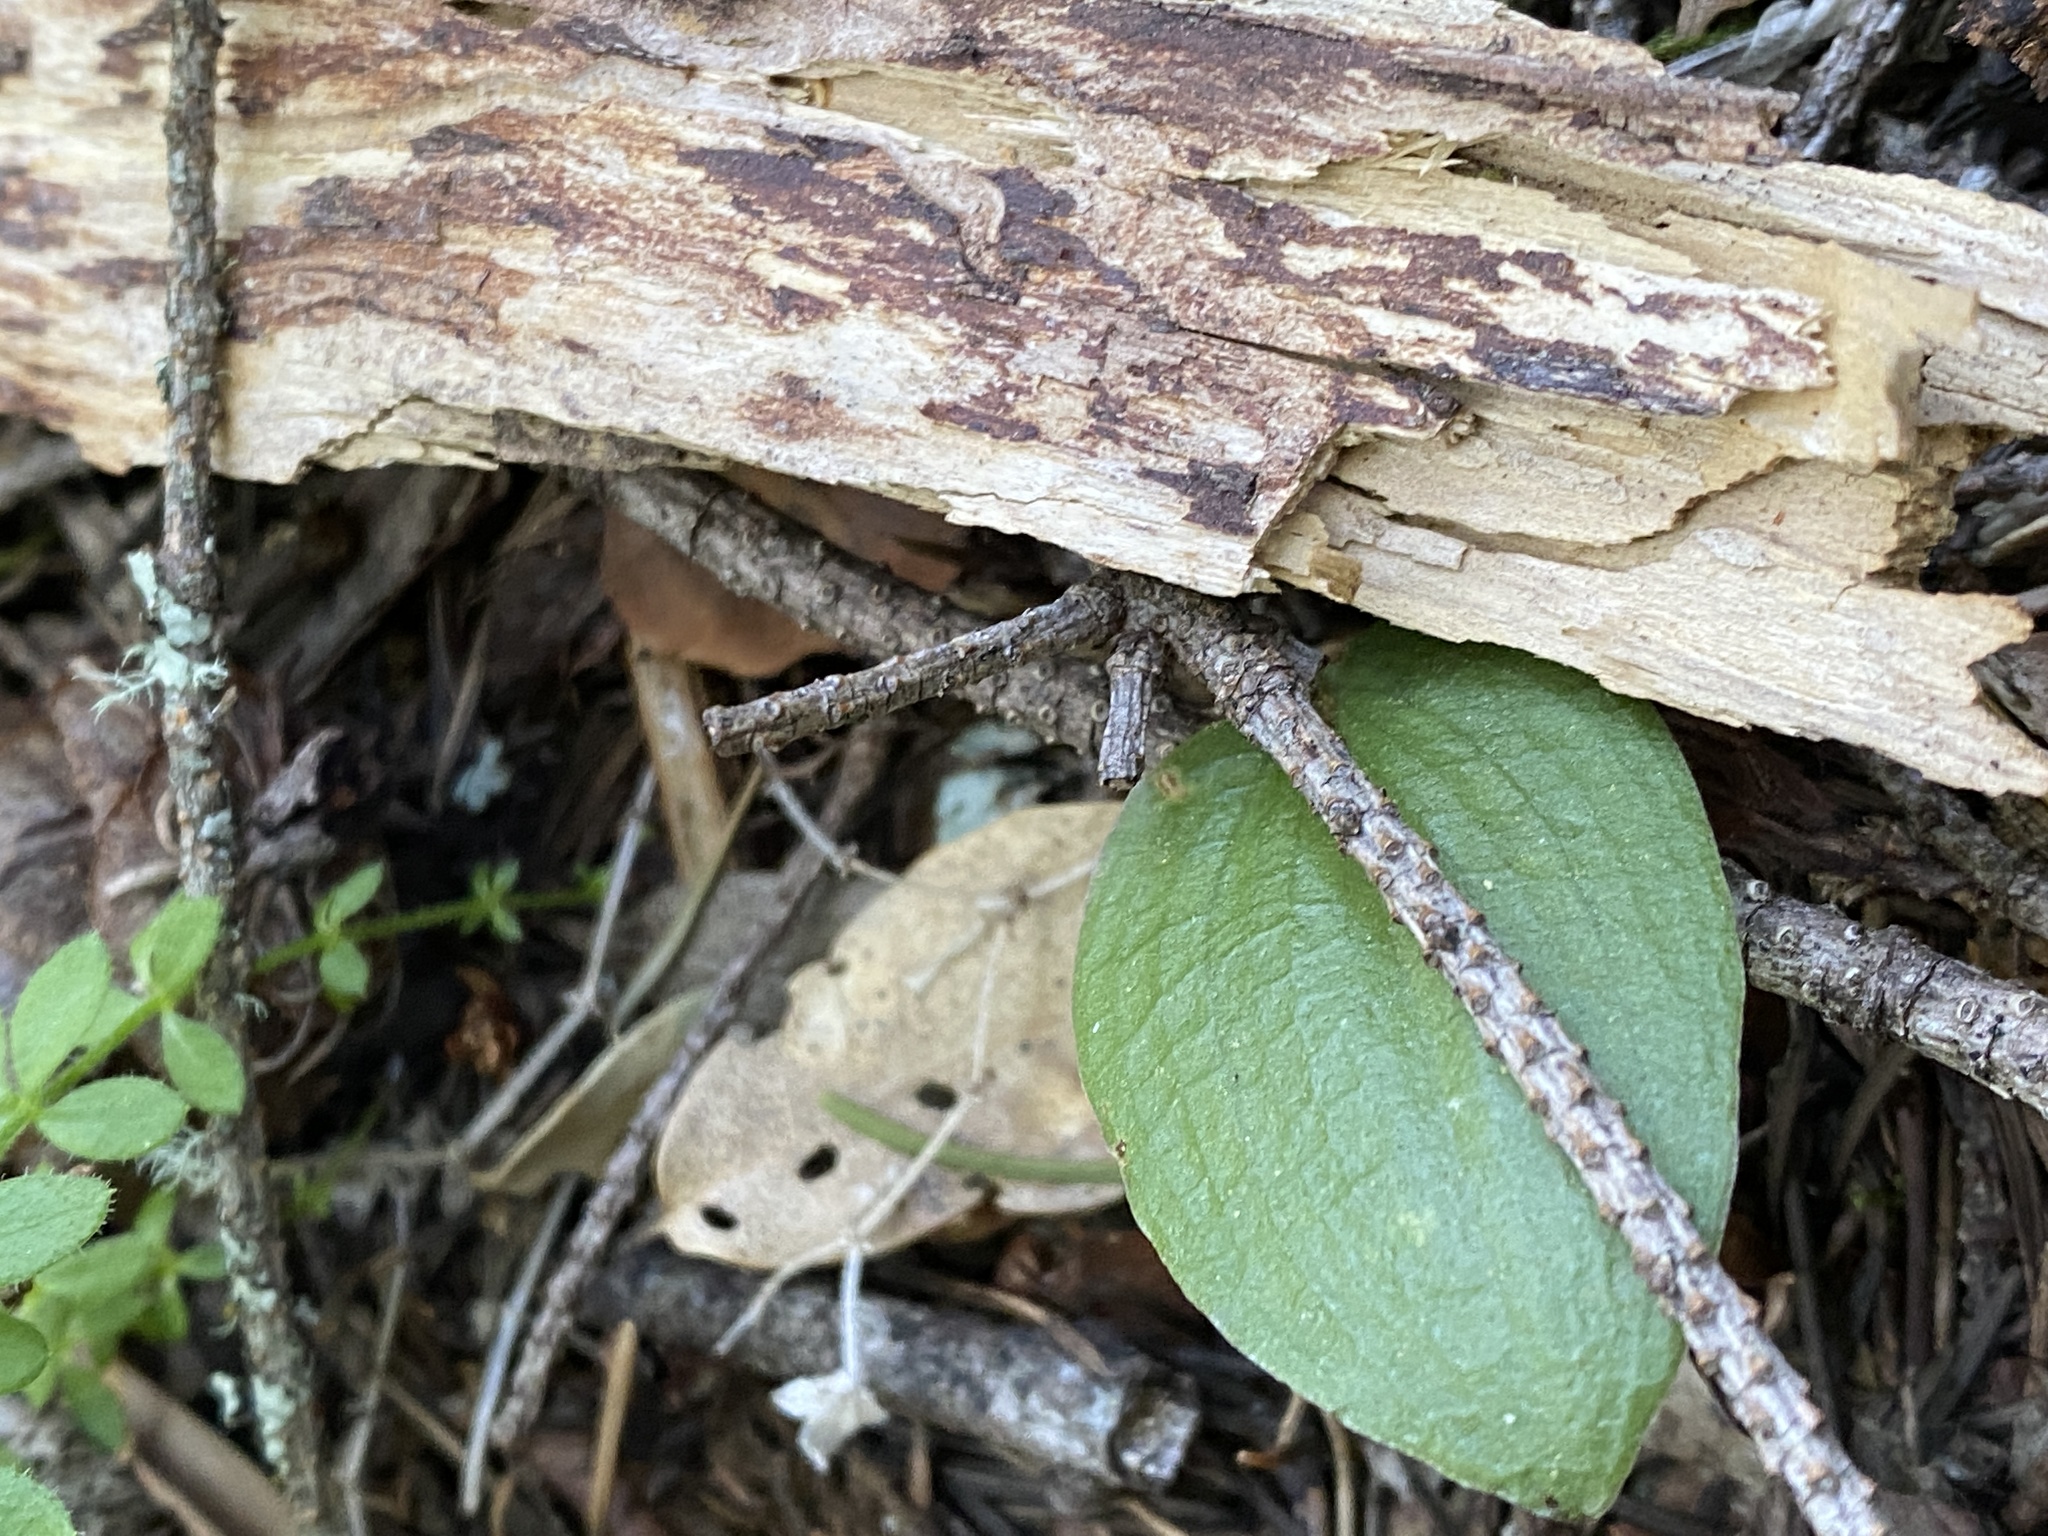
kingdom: Plantae
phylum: Tracheophyta
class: Liliopsida
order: Asparagales
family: Orchidaceae
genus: Calypso
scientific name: Calypso bulbosa
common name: Calypso
